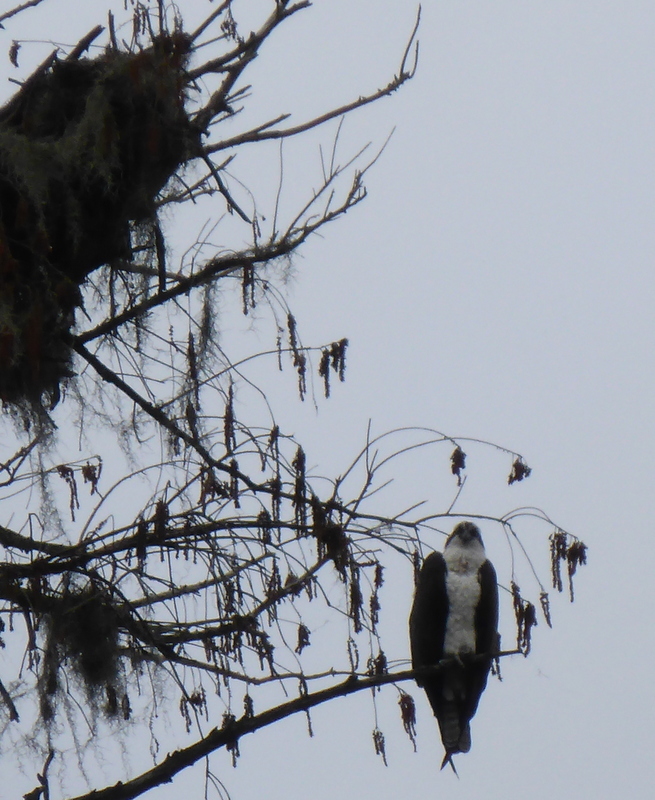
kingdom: Animalia
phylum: Chordata
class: Aves
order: Accipitriformes
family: Pandionidae
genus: Pandion
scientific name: Pandion haliaetus
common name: Osprey
